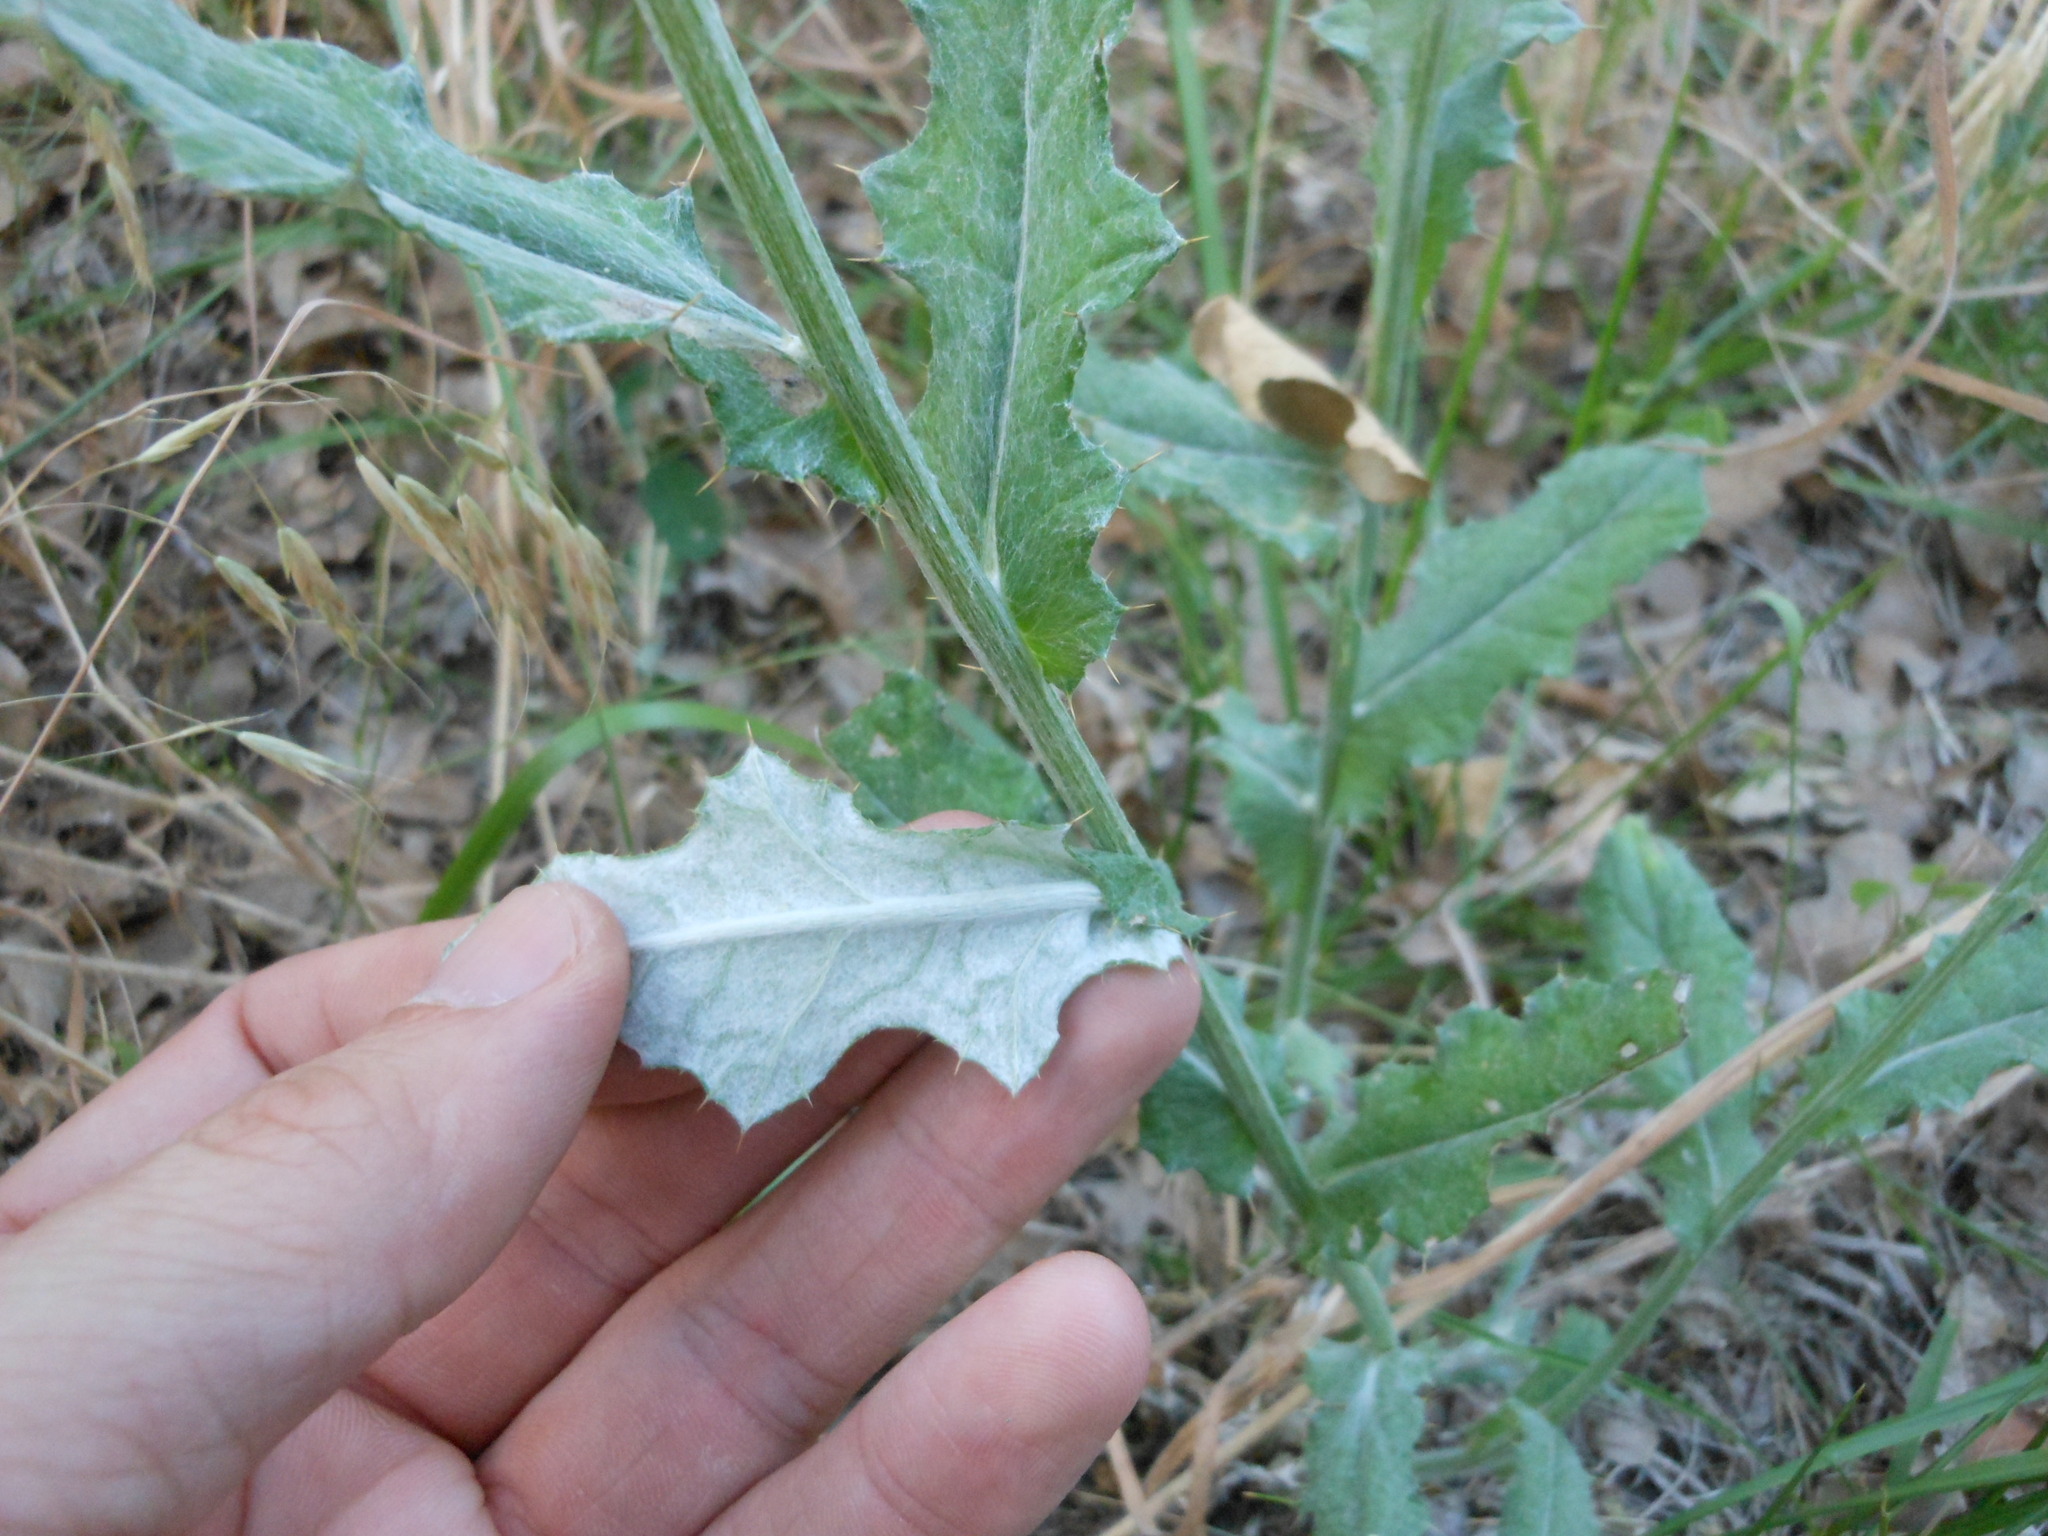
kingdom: Plantae
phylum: Tracheophyta
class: Magnoliopsida
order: Asterales
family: Asteraceae
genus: Cirsium
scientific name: Cirsium texanum
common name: Texas purple thistle
